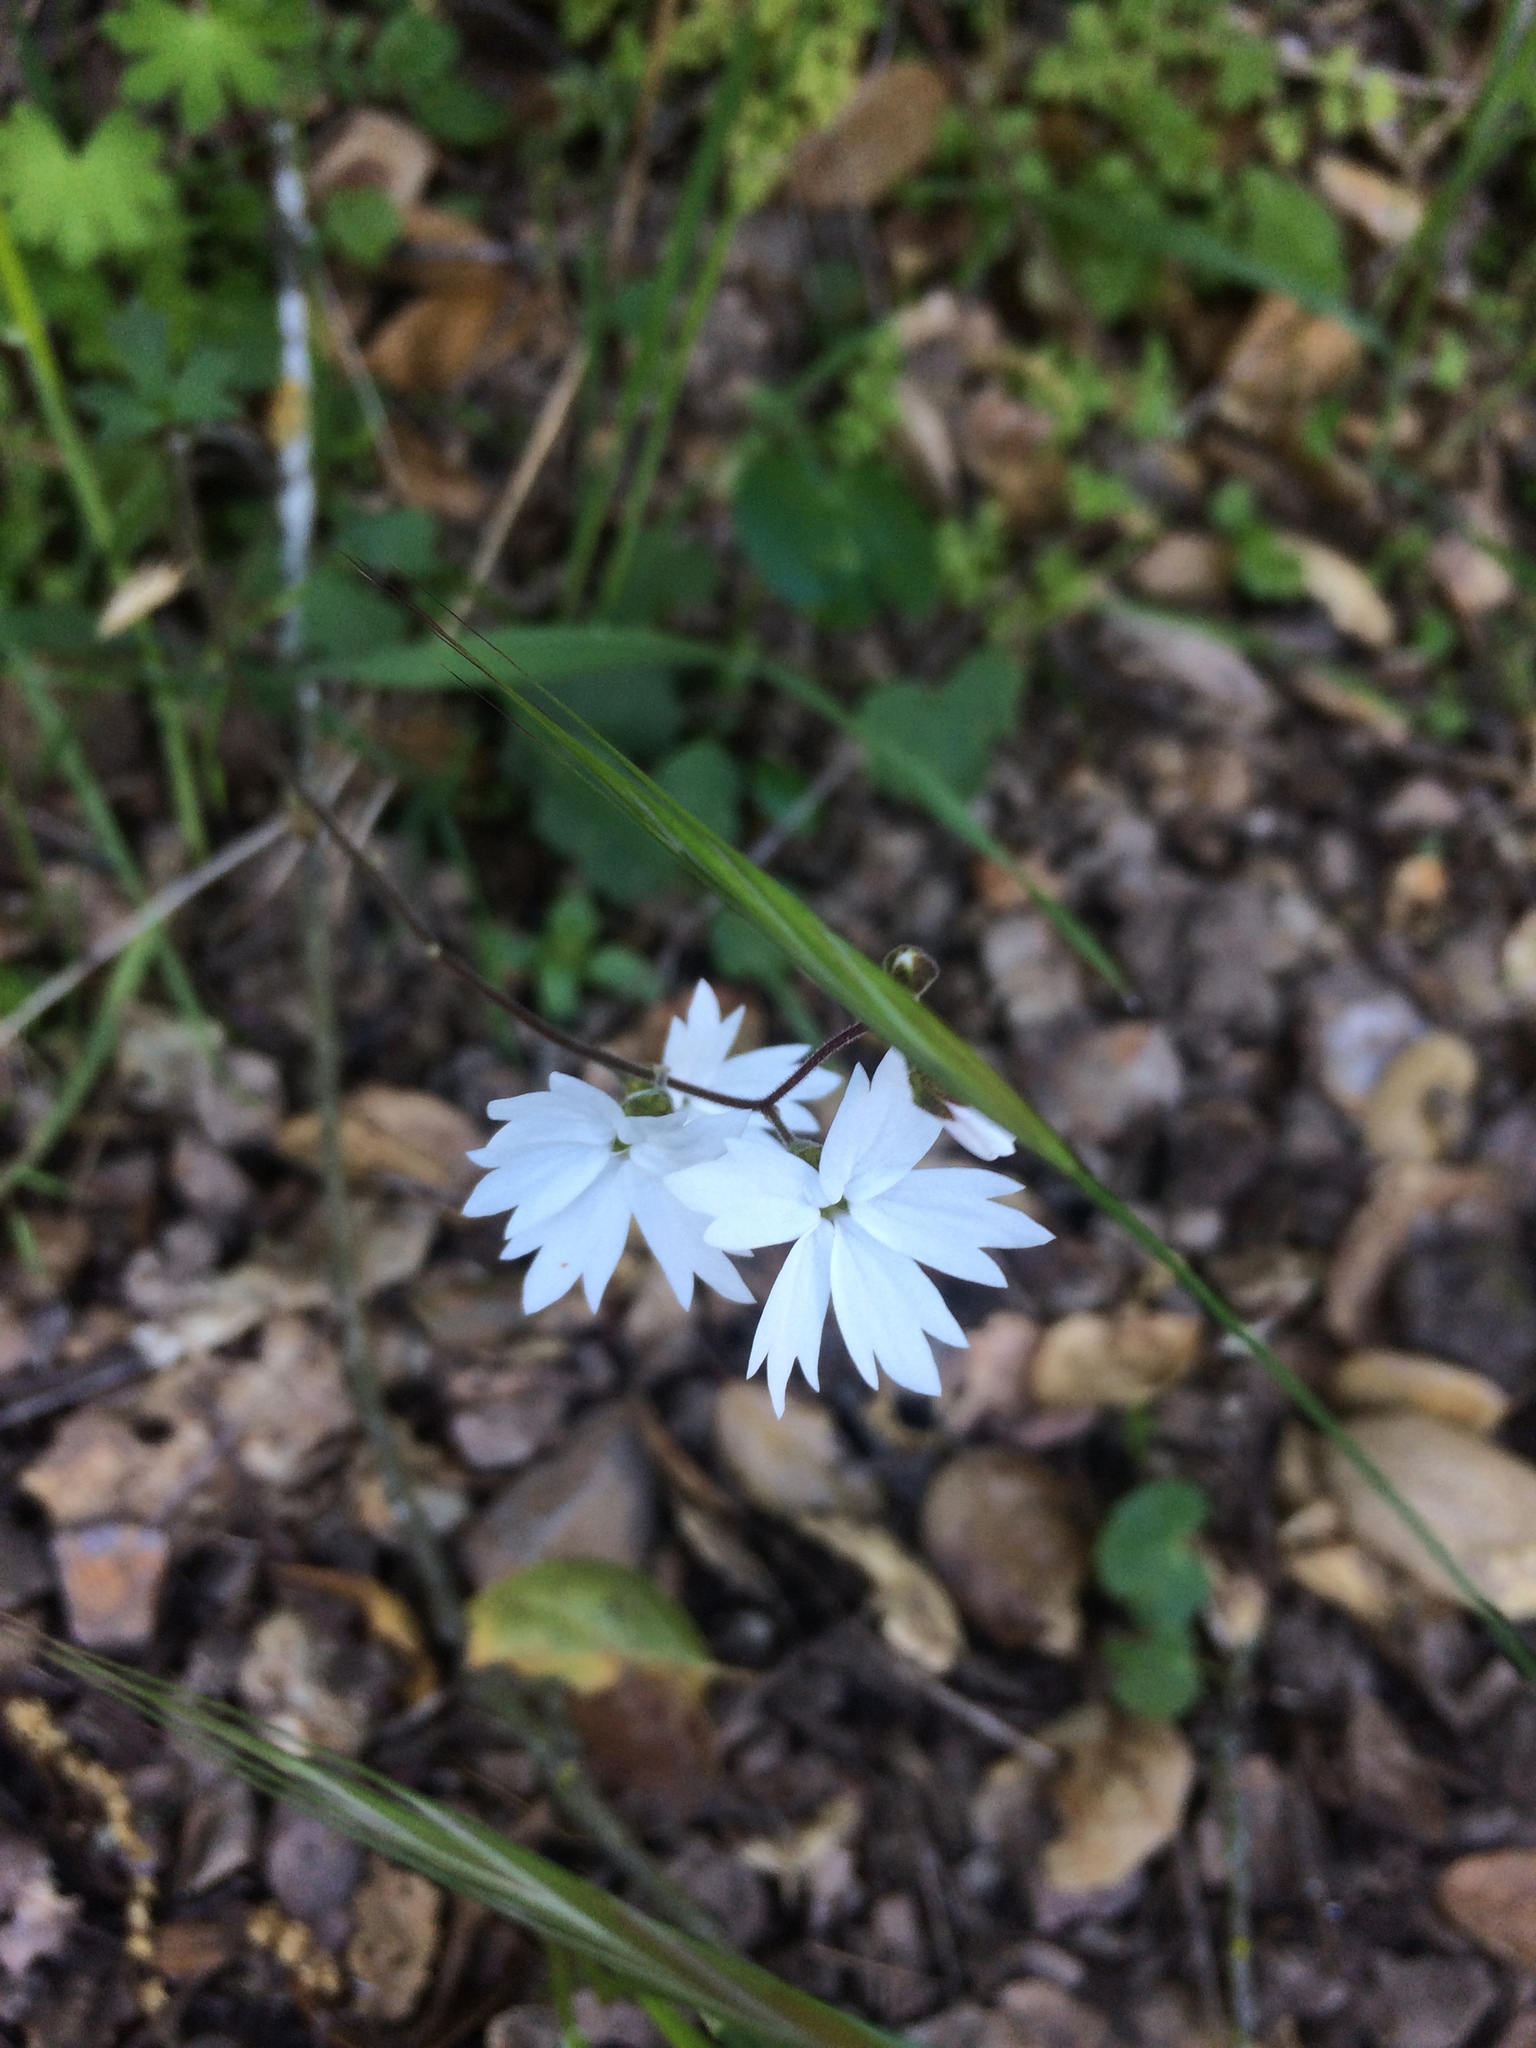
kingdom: Plantae
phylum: Tracheophyta
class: Magnoliopsida
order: Saxifragales
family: Saxifragaceae
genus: Lithophragma
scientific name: Lithophragma affine
